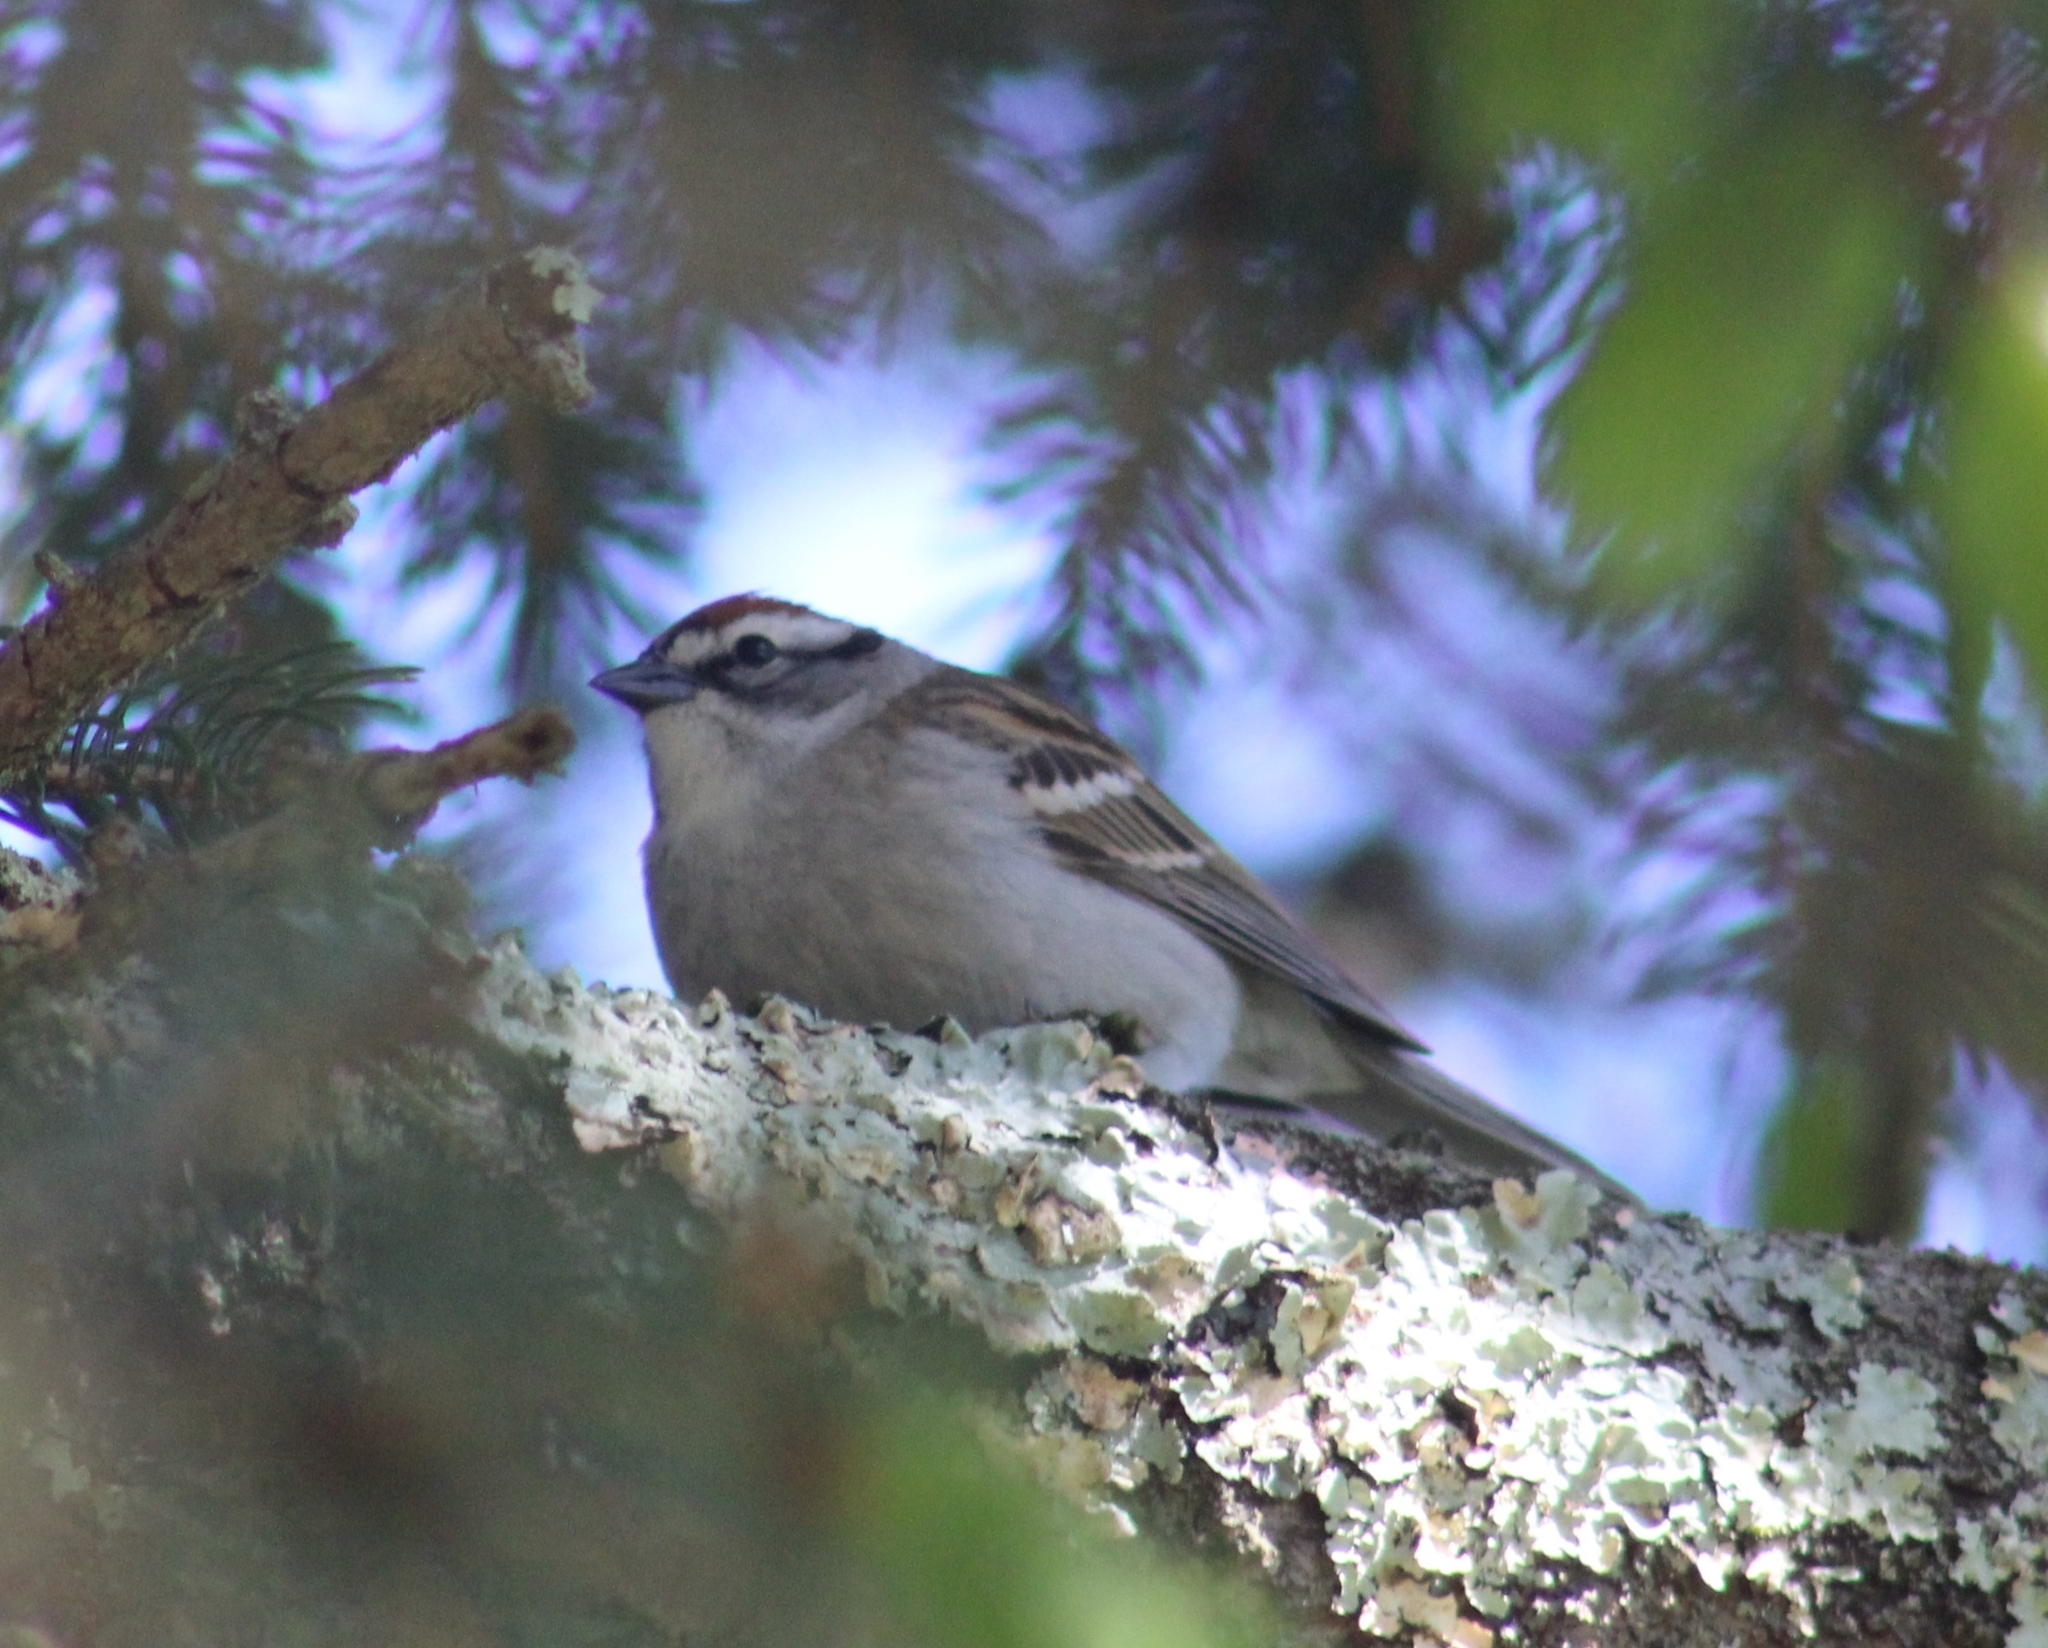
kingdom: Animalia
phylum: Chordata
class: Aves
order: Passeriformes
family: Passerellidae
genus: Spizella
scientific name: Spizella passerina
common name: Chipping sparrow
